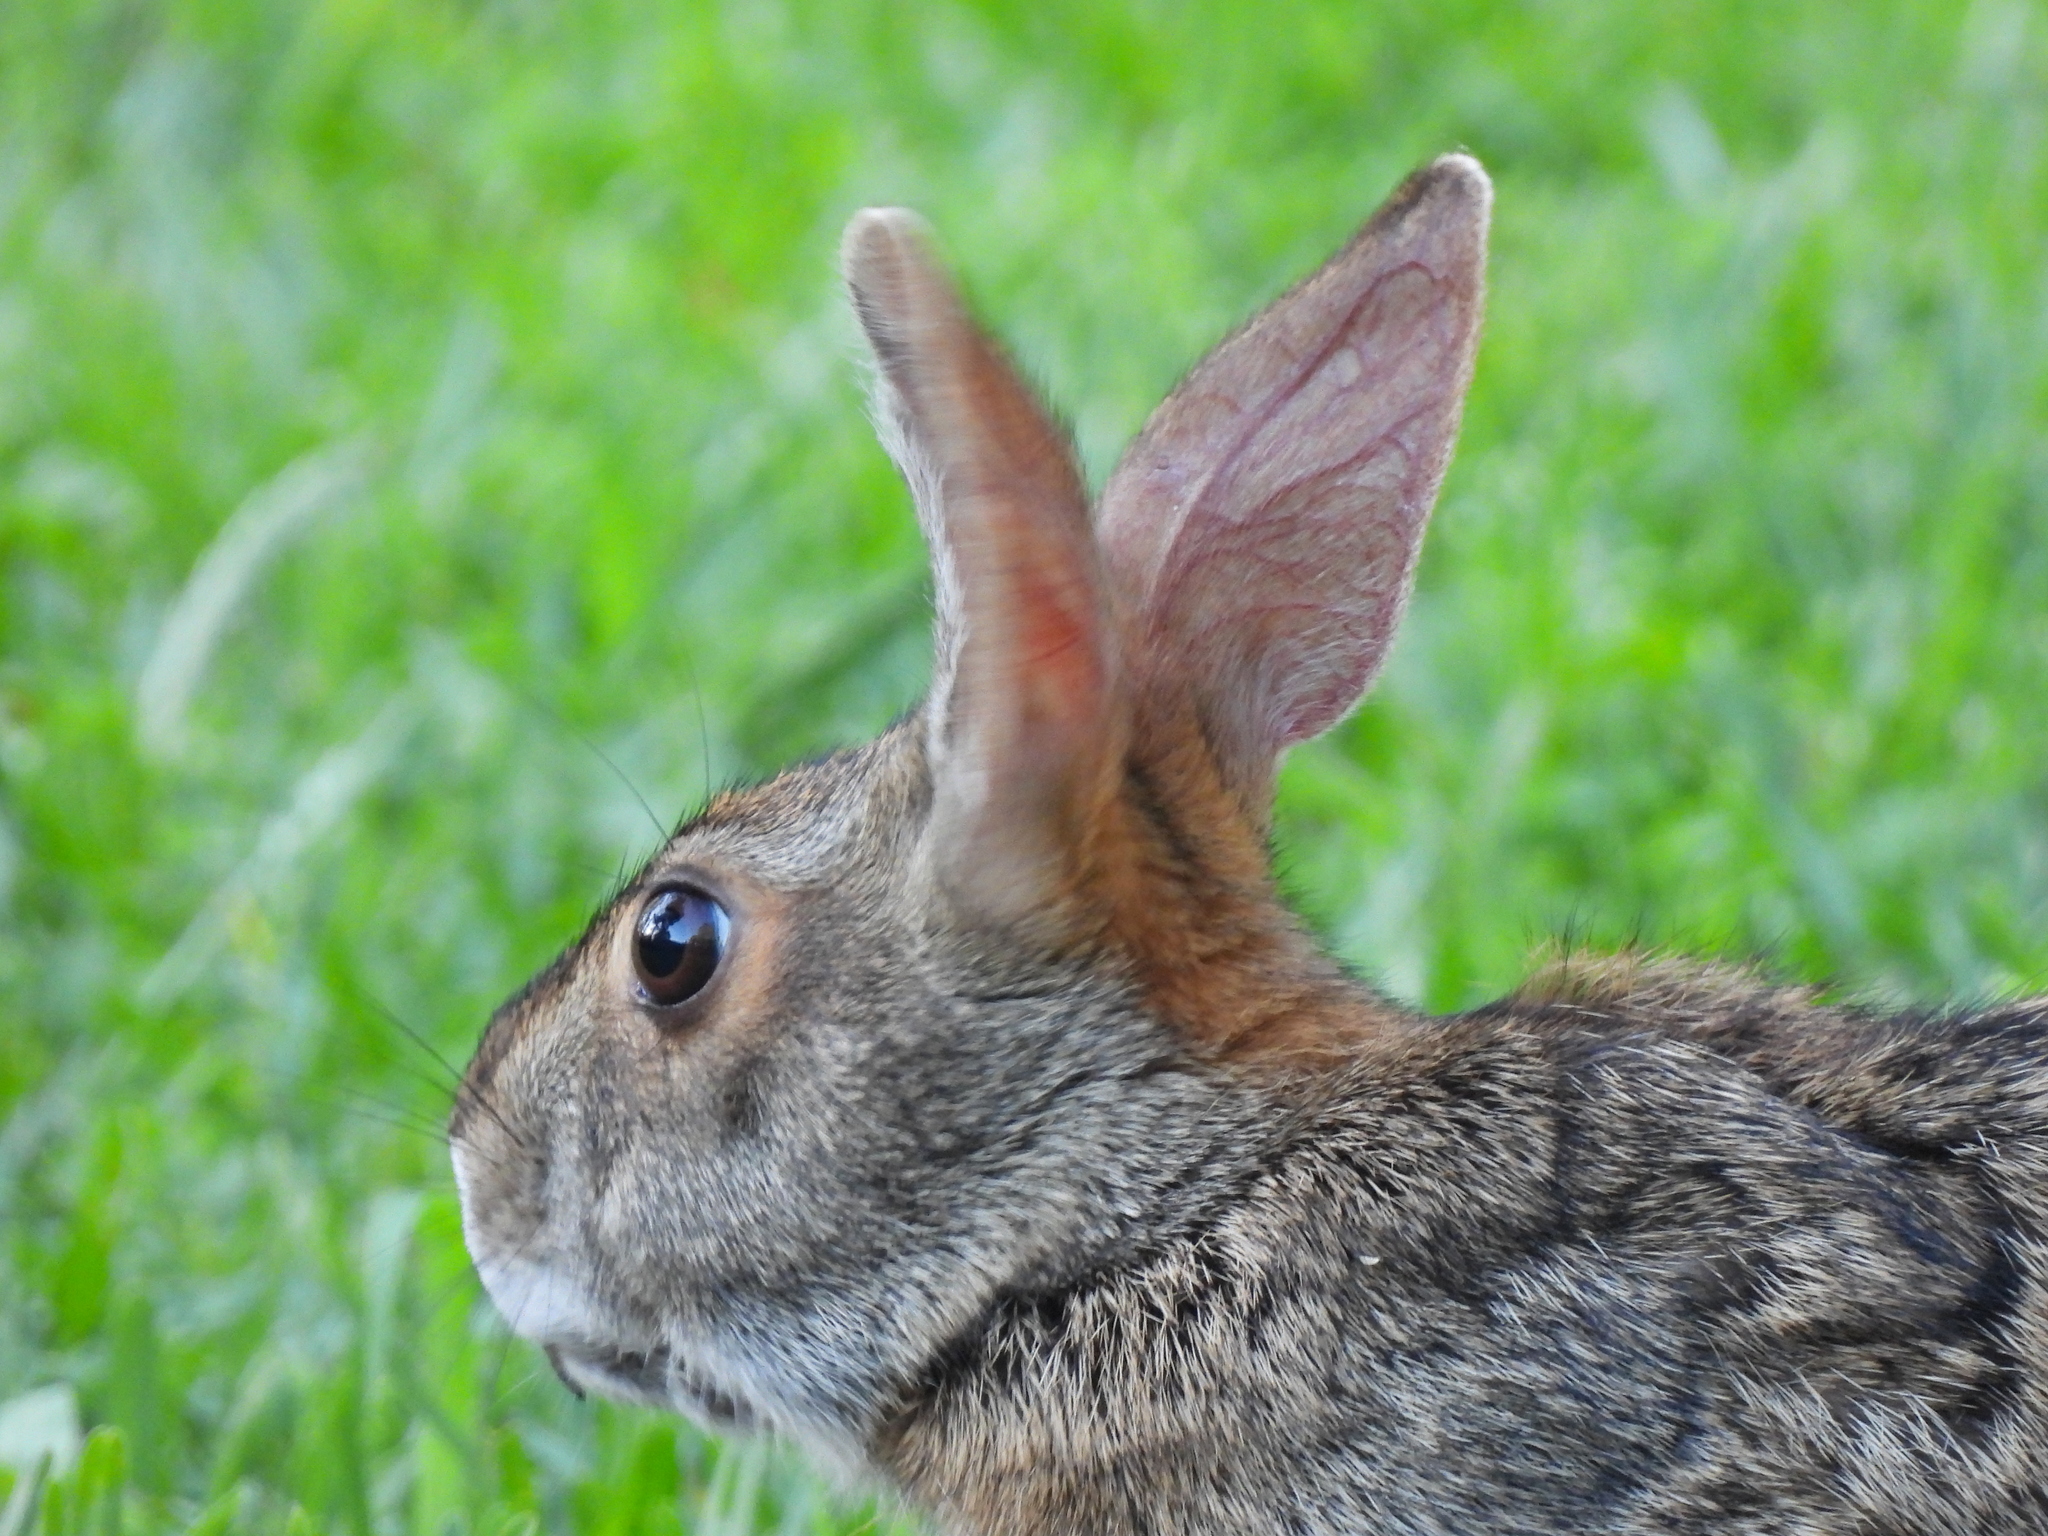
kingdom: Animalia
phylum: Chordata
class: Mammalia
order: Lagomorpha
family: Leporidae
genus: Sylvilagus
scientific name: Sylvilagus aquaticus
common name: Swamp rabbit
